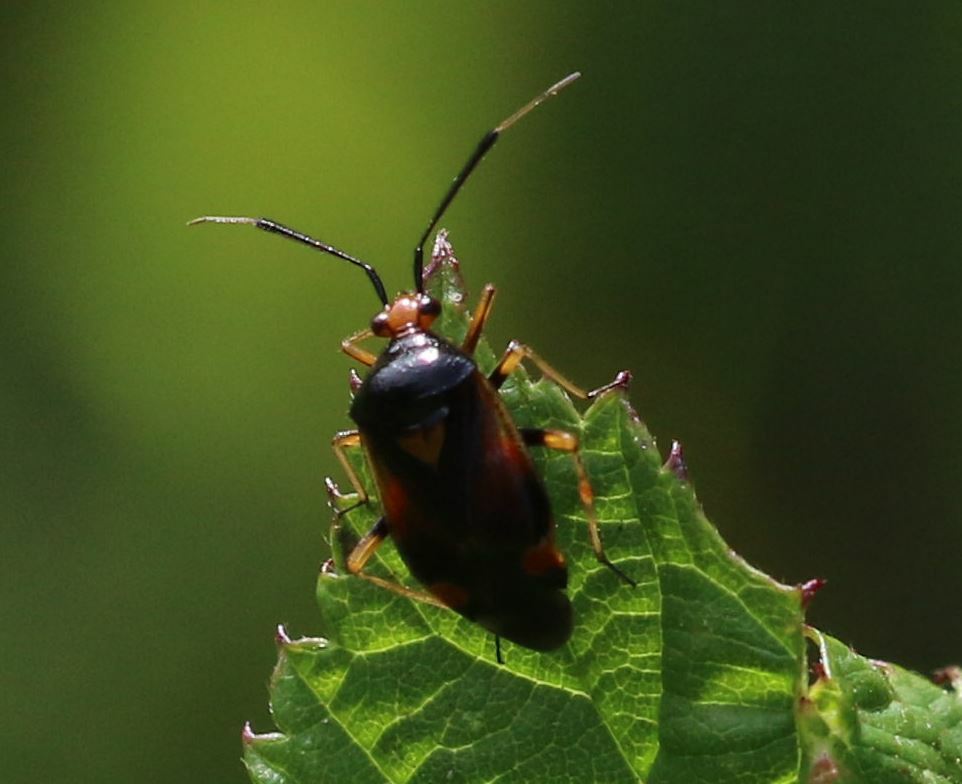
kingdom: Animalia
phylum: Arthropoda
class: Insecta
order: Hemiptera
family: Miridae
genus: Deraeocoris
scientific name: Deraeocoris ruber
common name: Plant bug
